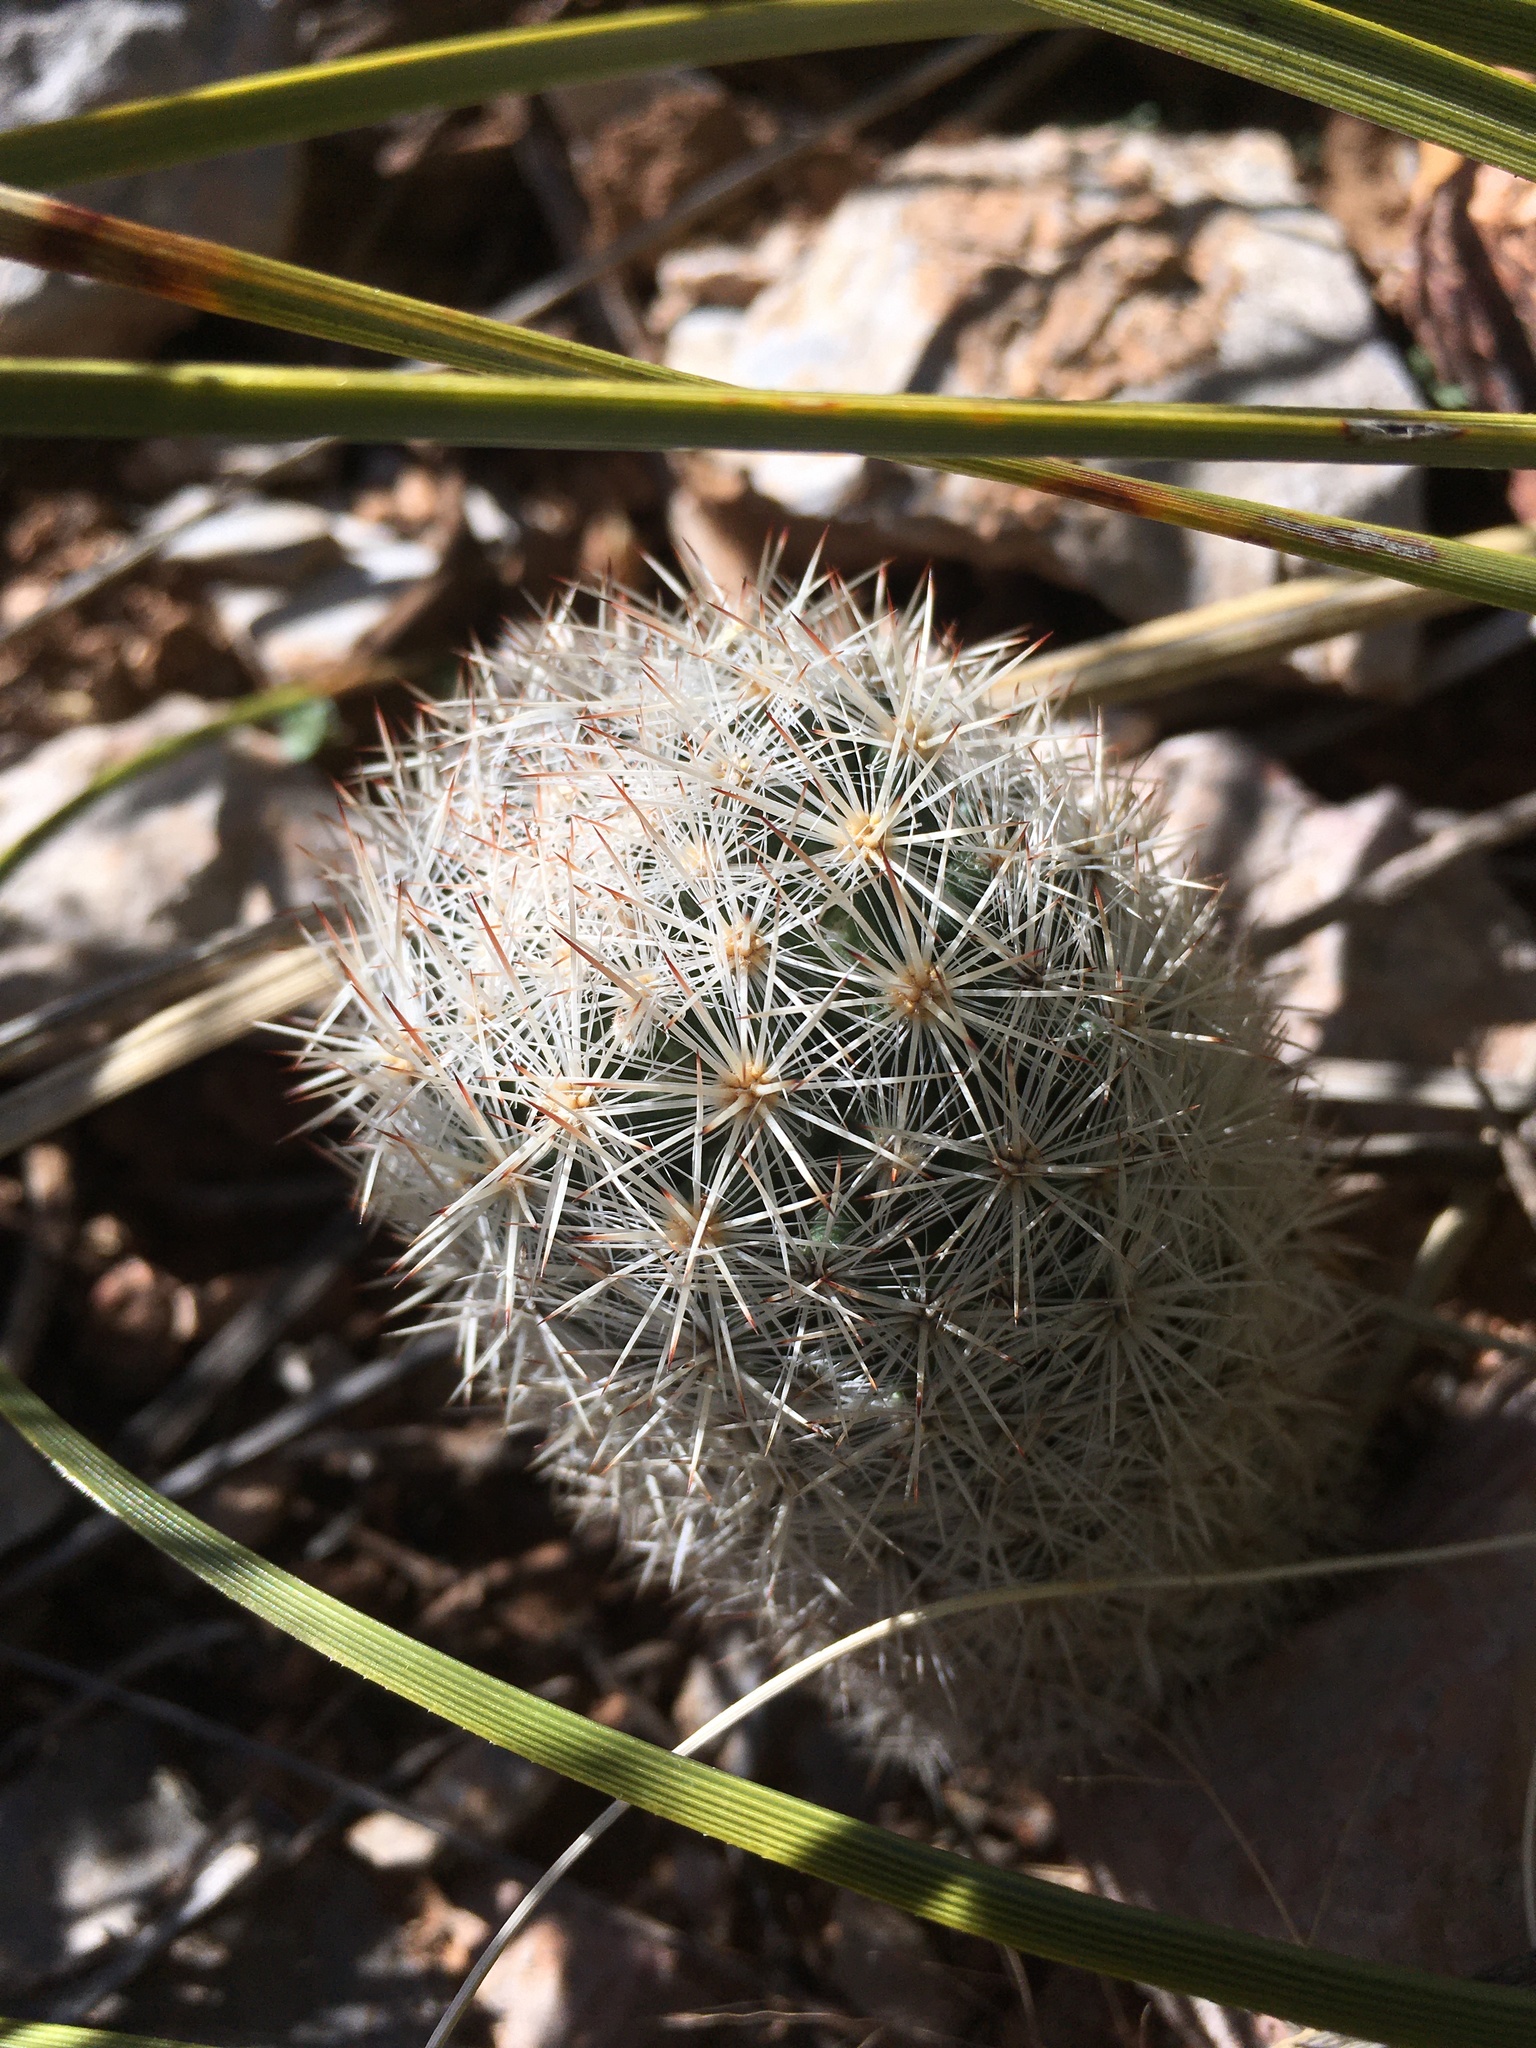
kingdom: Plantae
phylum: Tracheophyta
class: Magnoliopsida
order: Caryophyllales
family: Cactaceae
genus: Pelecyphora
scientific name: Pelecyphora sneedii
